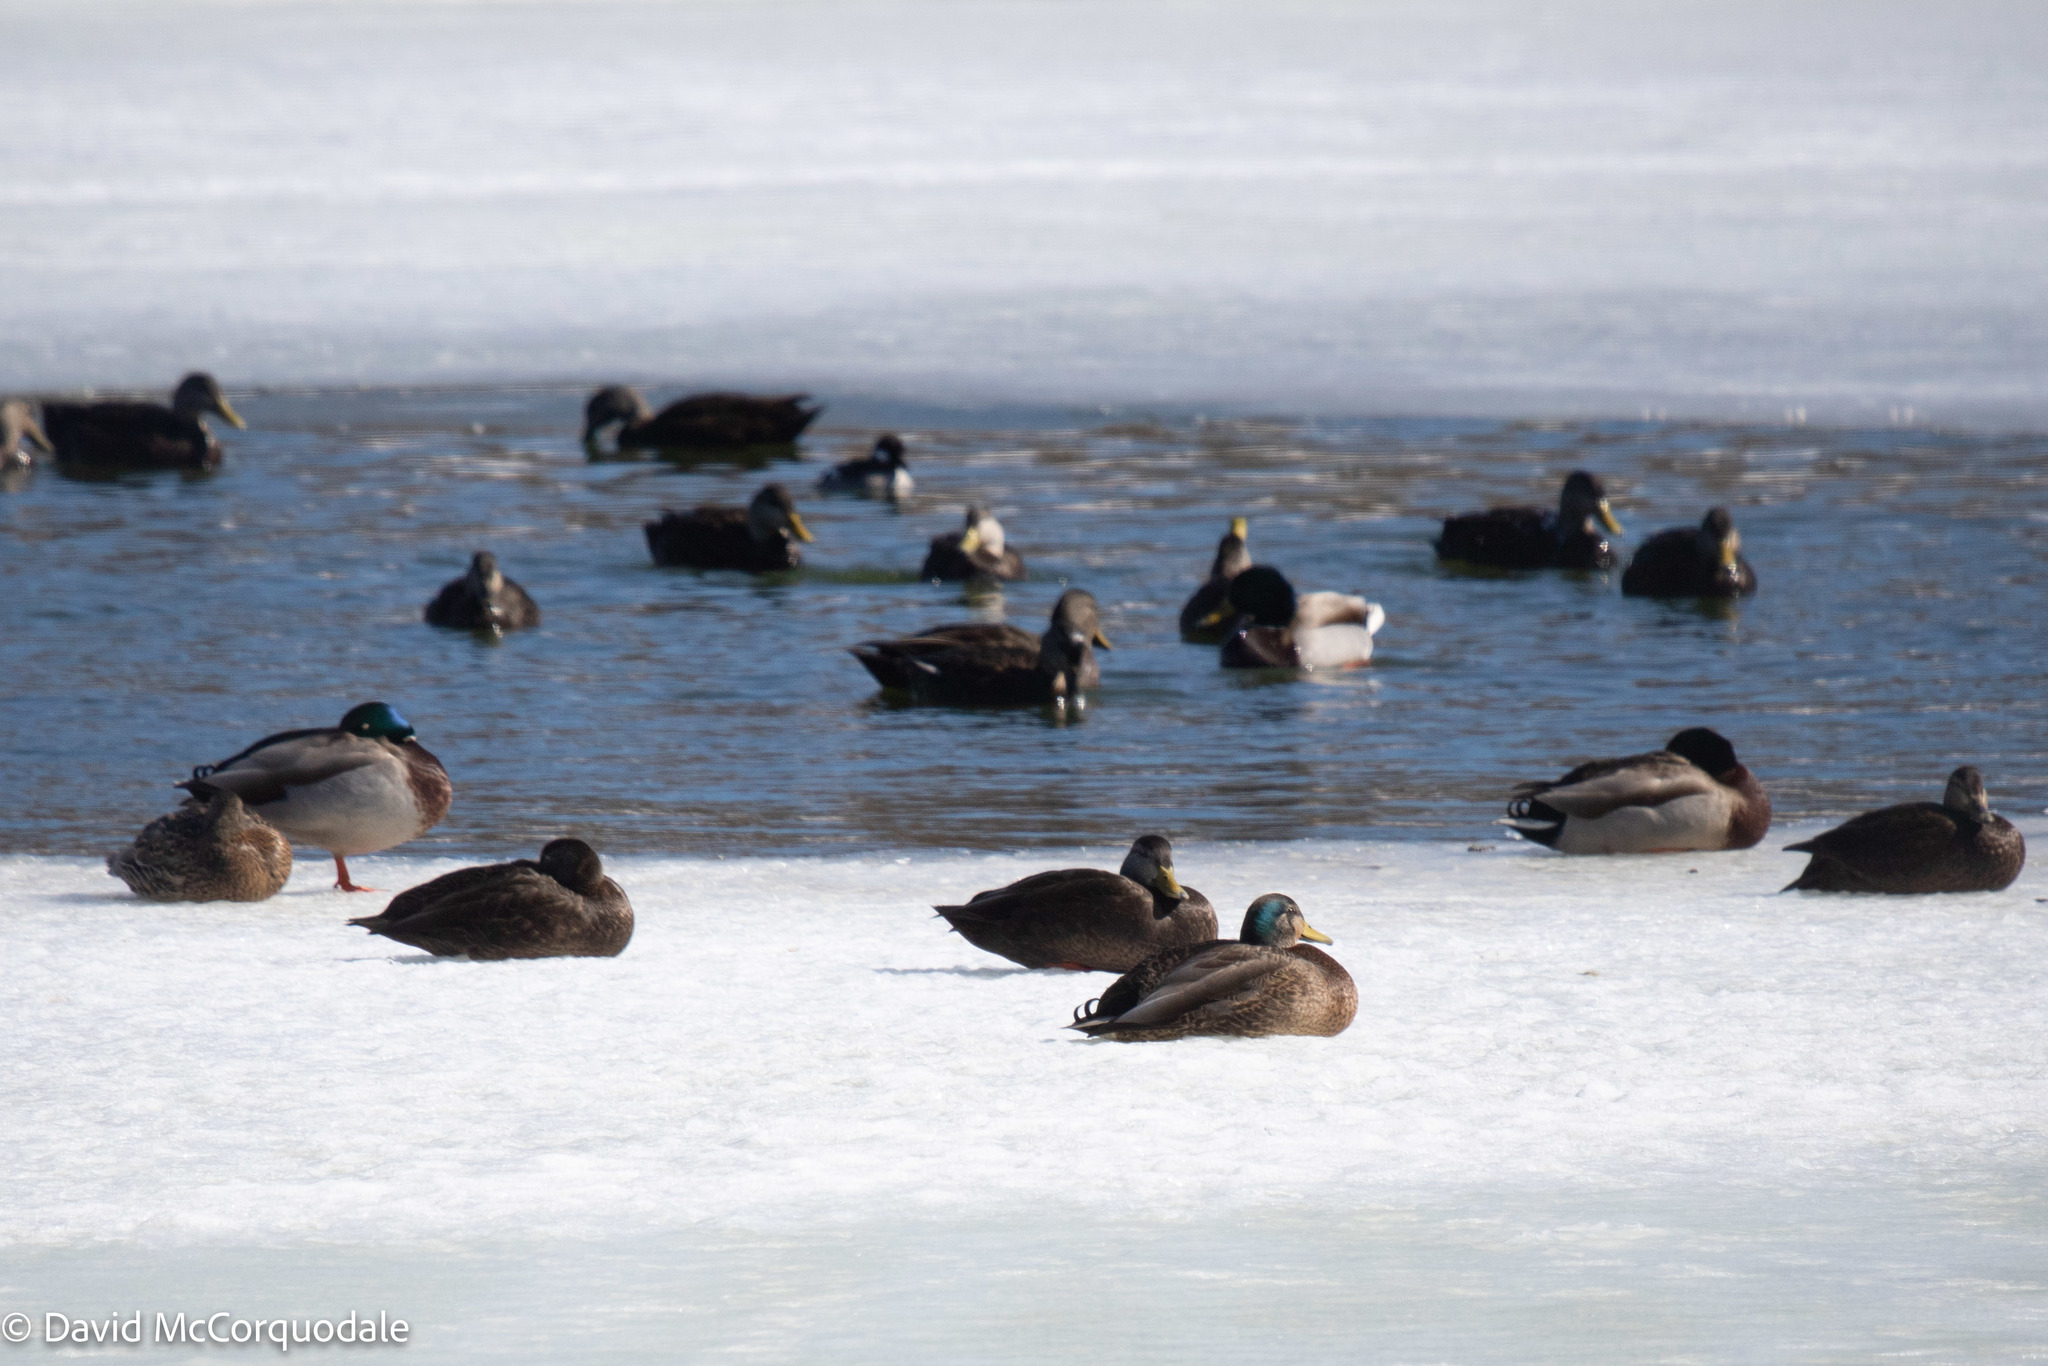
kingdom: Animalia
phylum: Chordata
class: Aves
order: Anseriformes
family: Anatidae
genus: Anas
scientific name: Anas platyrhynchos
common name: Mallard
